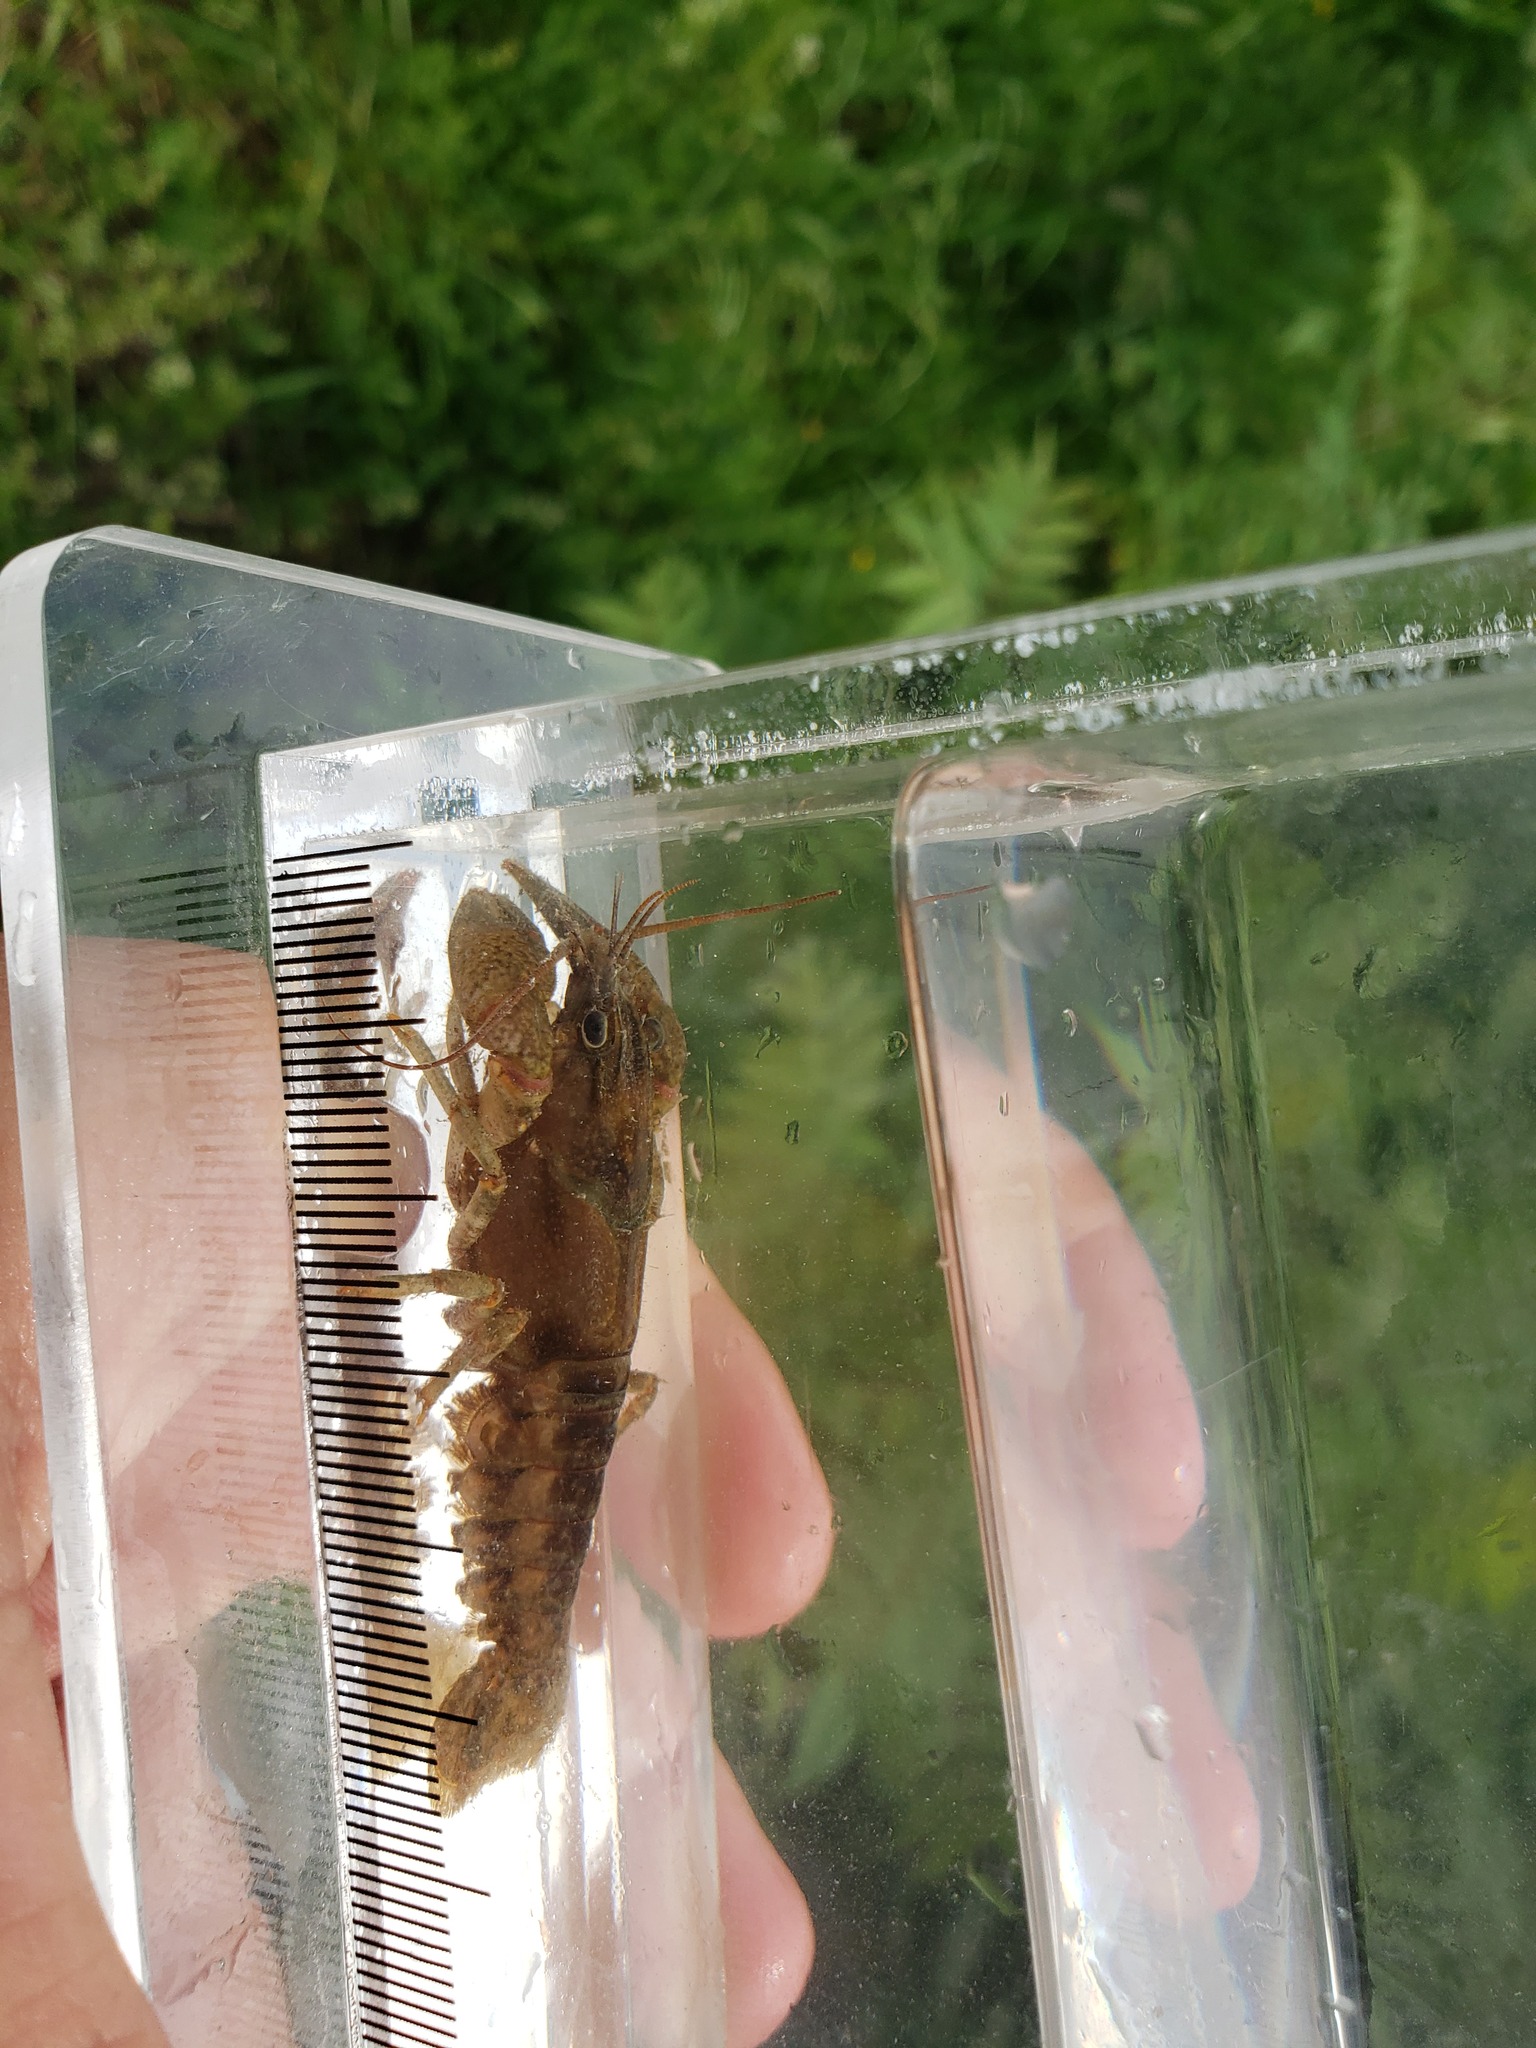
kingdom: Animalia
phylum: Arthropoda
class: Malacostraca
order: Decapoda
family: Cambaridae
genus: Faxonius
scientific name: Faxonius propinquus
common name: Northern clearwater crayfish
